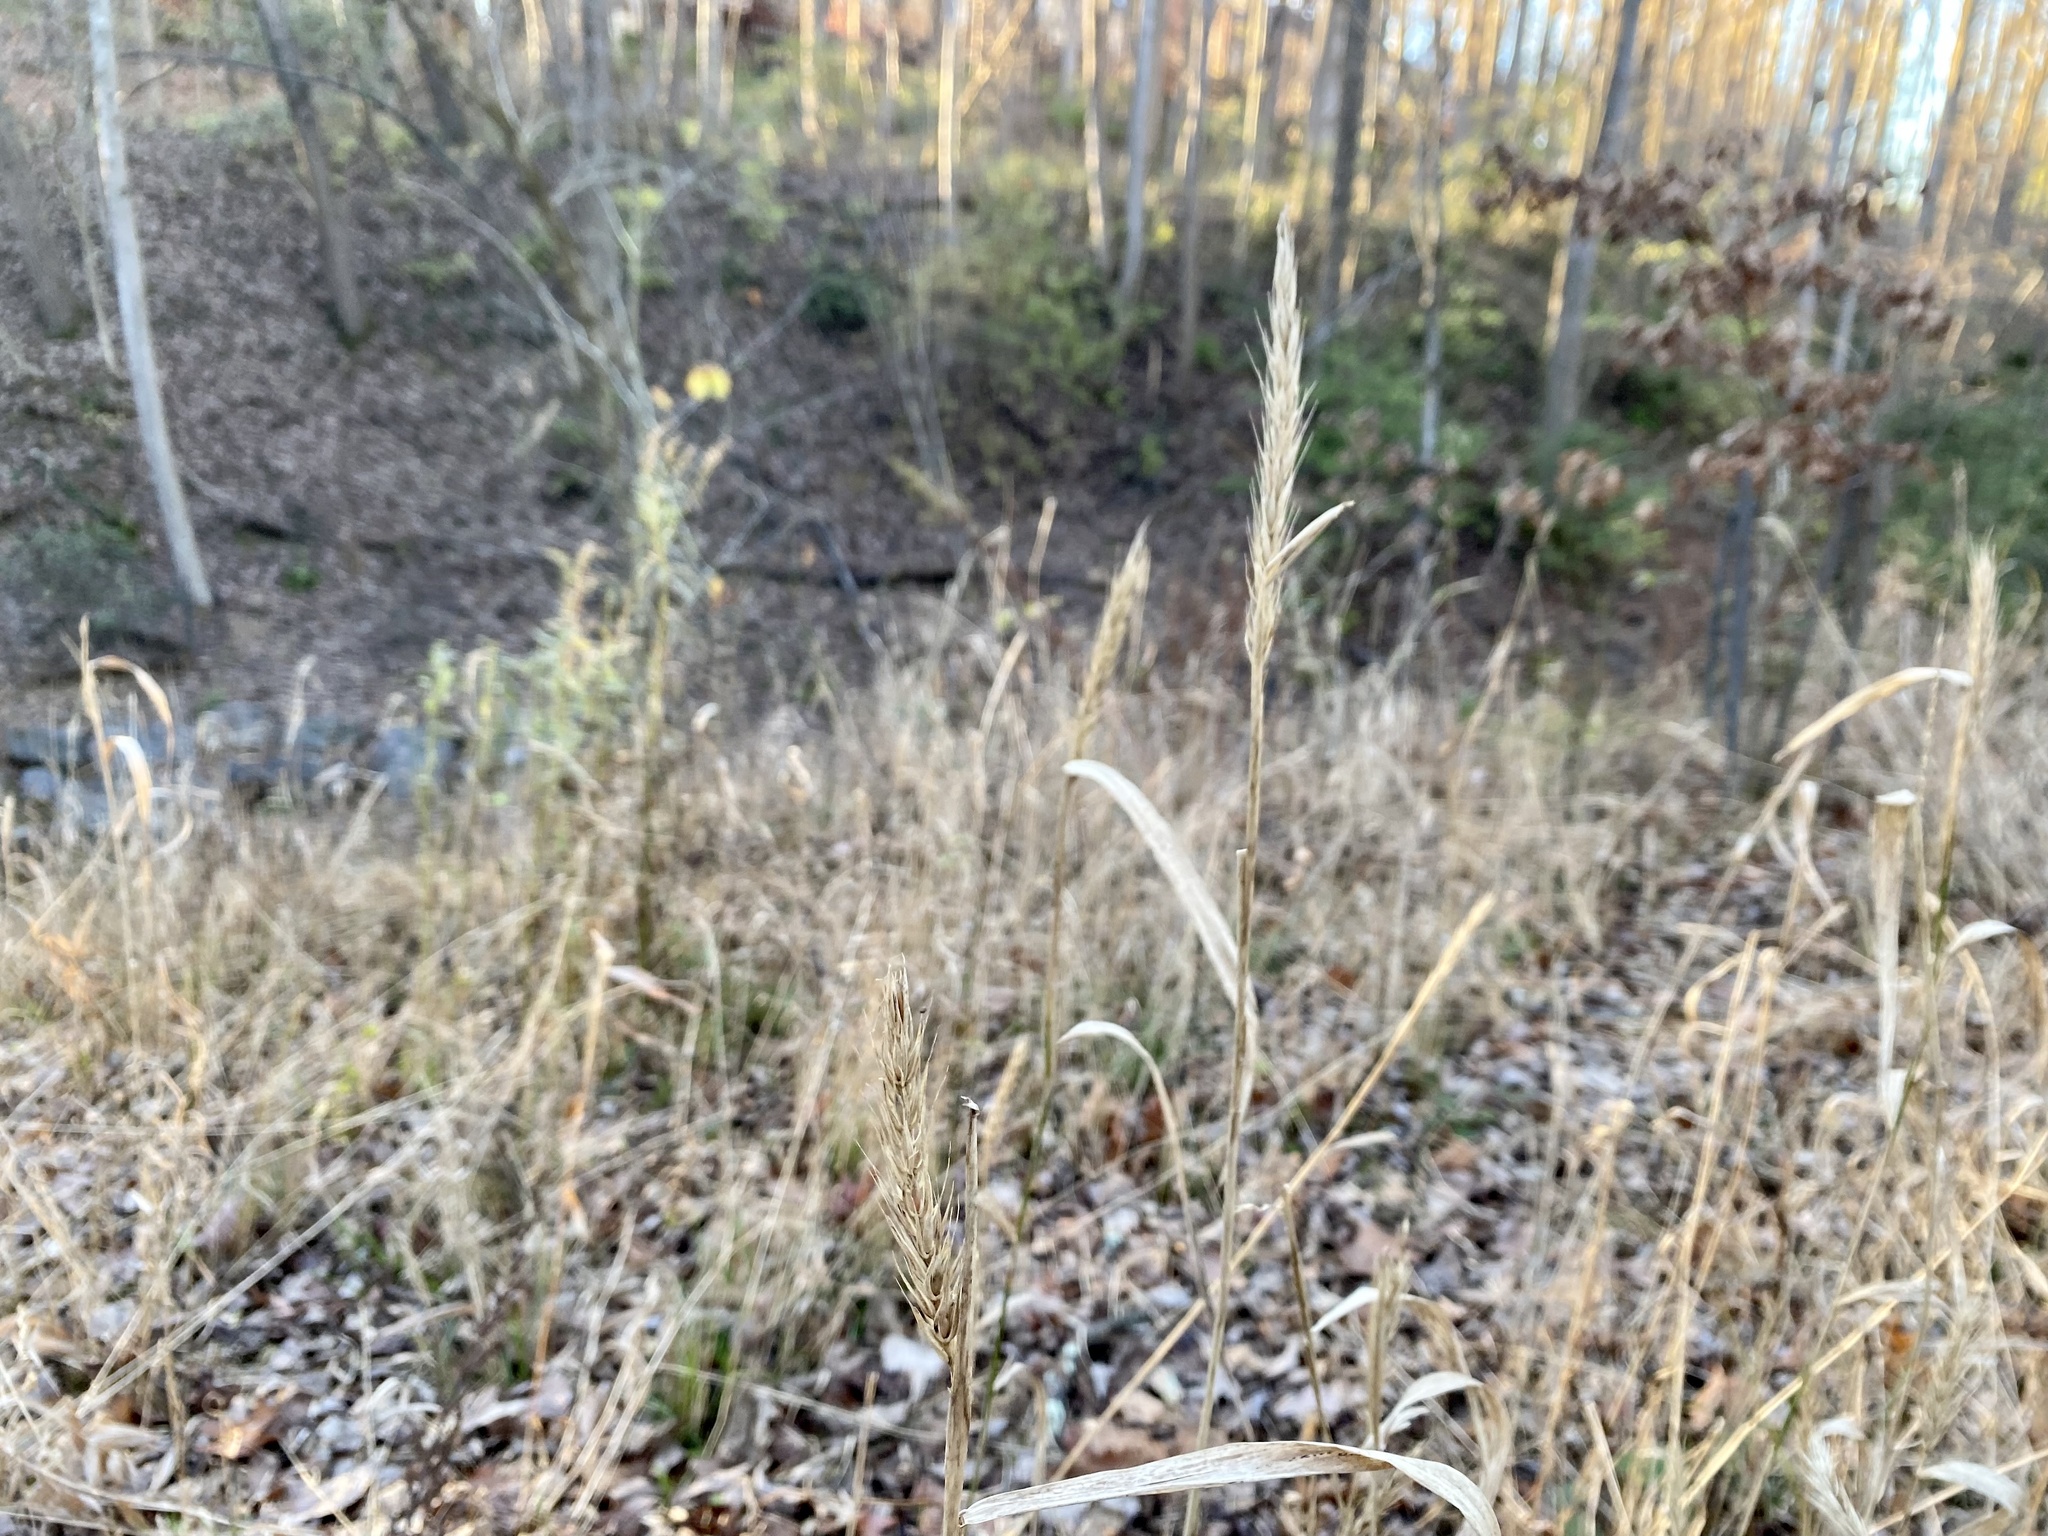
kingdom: Plantae
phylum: Tracheophyta
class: Liliopsida
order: Poales
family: Poaceae
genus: Elymus
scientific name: Elymus virginicus
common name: Common eastern wildrye
